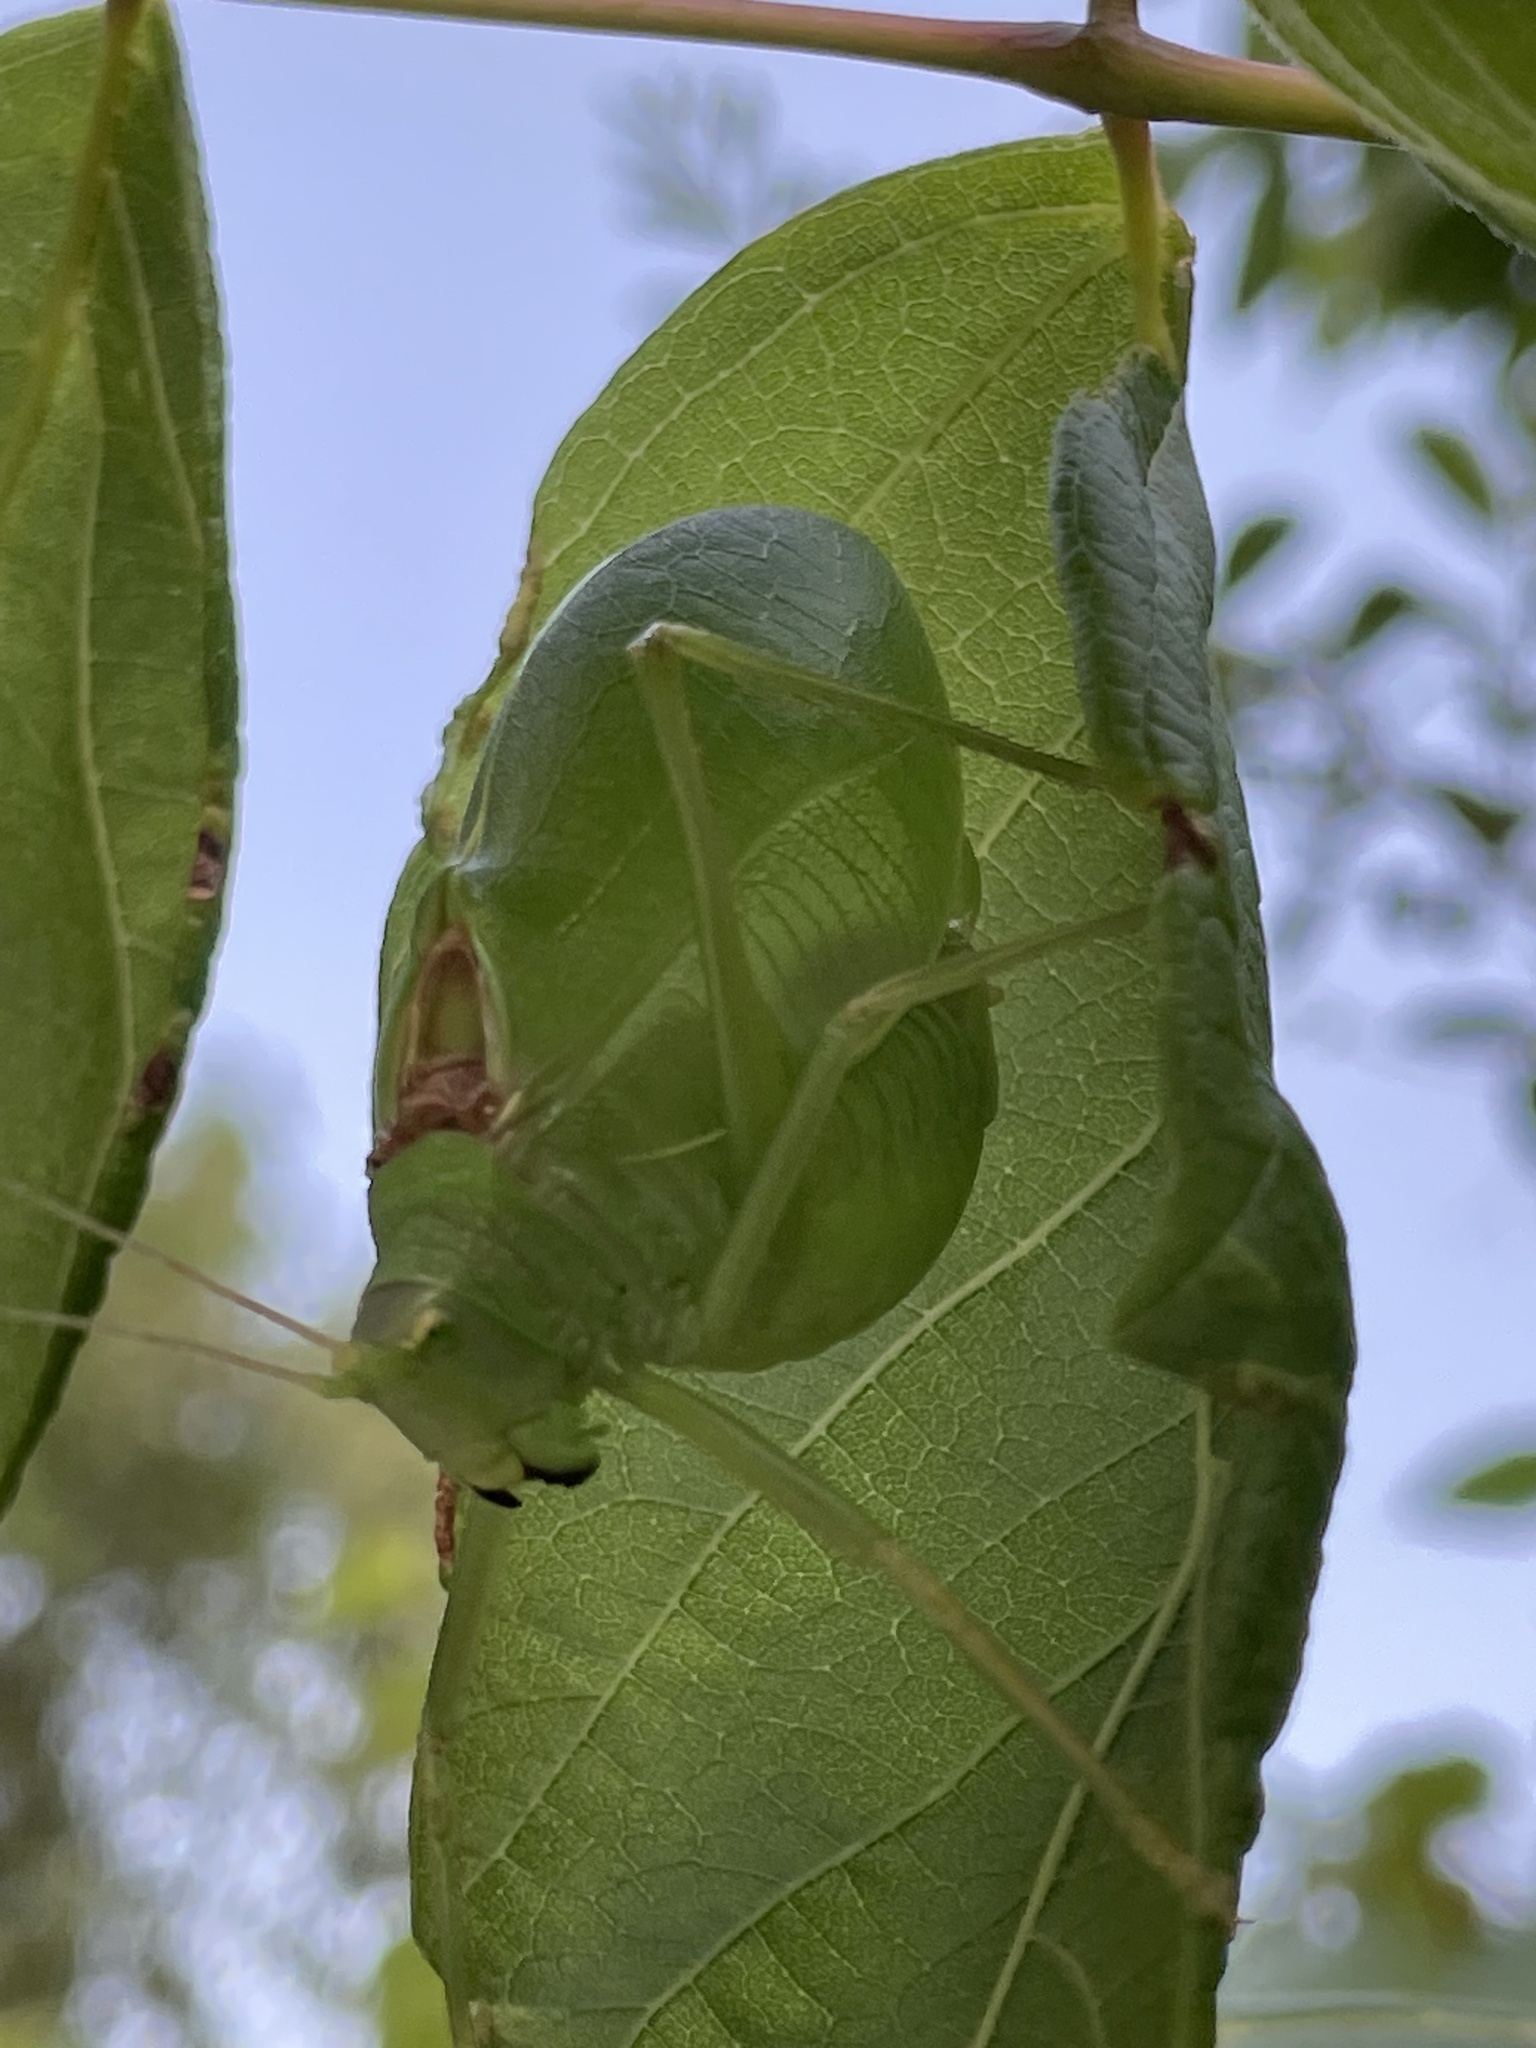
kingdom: Animalia
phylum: Arthropoda
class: Insecta
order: Orthoptera
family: Tettigoniidae
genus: Pterophylla
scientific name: Pterophylla camellifolia
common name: Common true katydid
